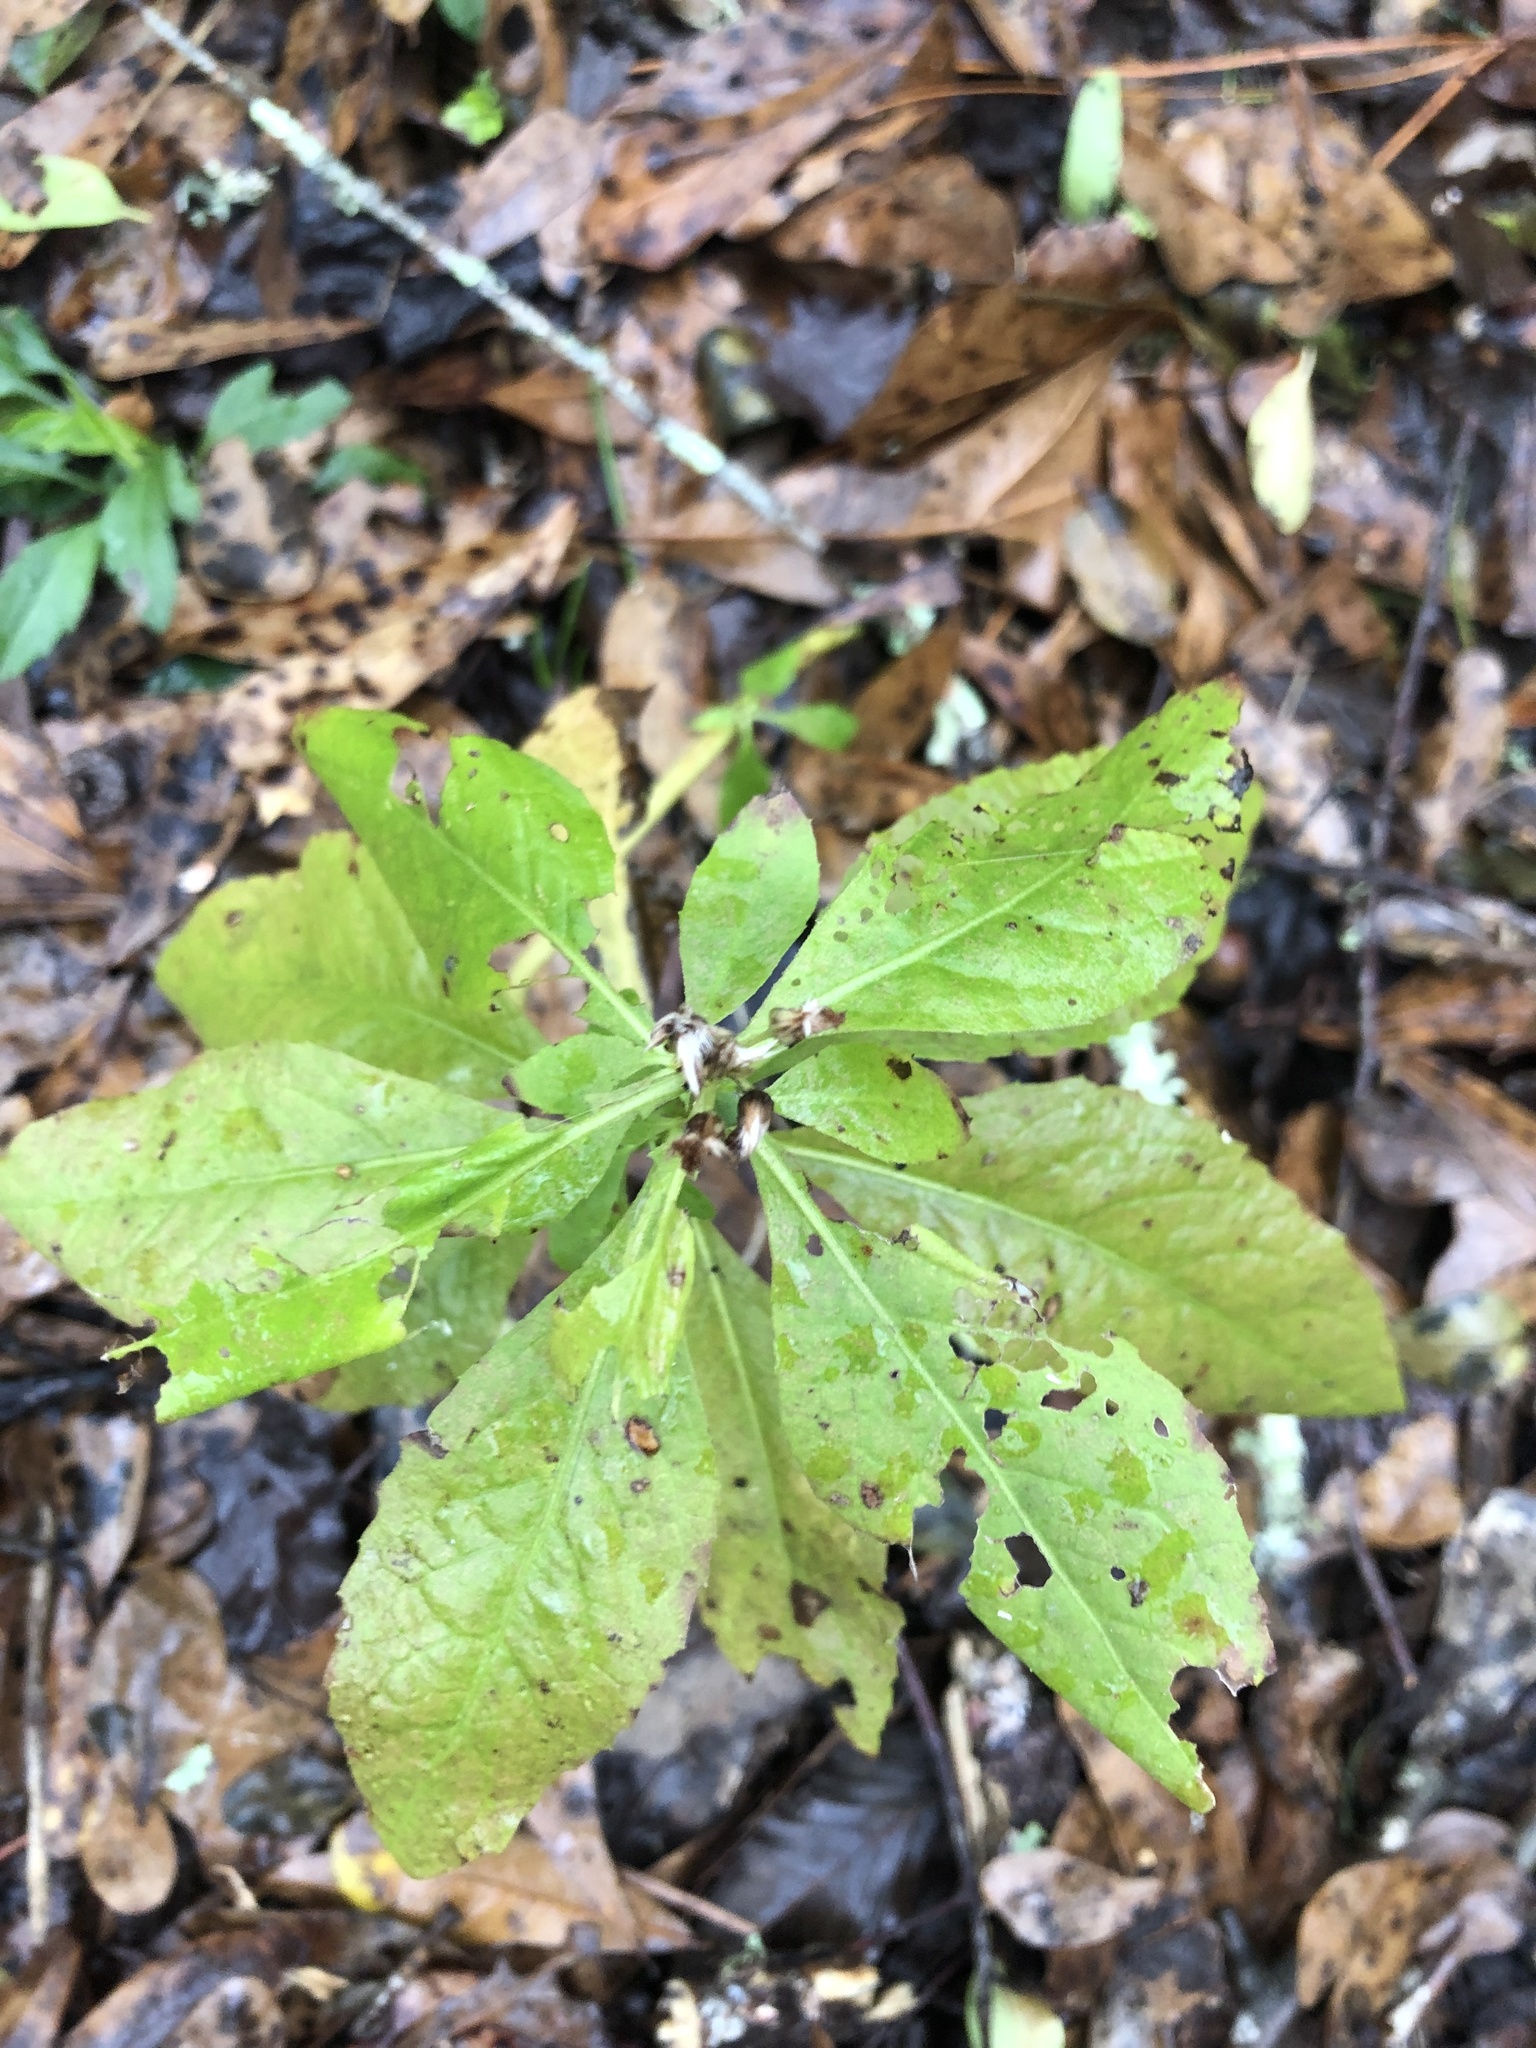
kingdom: Plantae
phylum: Tracheophyta
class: Magnoliopsida
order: Asterales
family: Asteraceae
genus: Pluchea
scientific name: Pluchea camphorata
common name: Camphor pluchea
